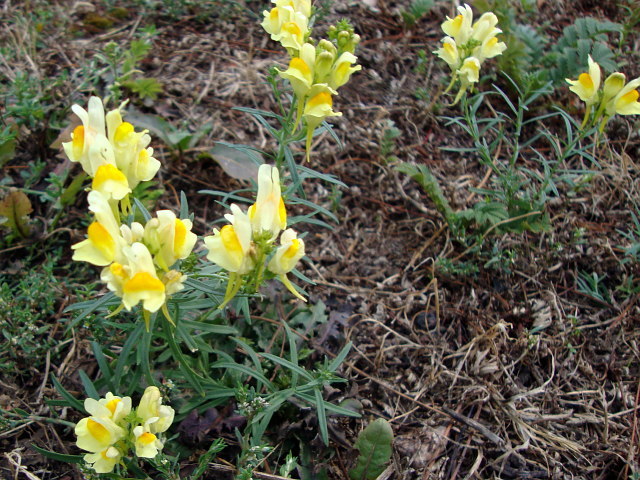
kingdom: Plantae
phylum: Tracheophyta
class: Magnoliopsida
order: Lamiales
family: Plantaginaceae
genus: Linaria
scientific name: Linaria vulgaris
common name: Butter and eggs
